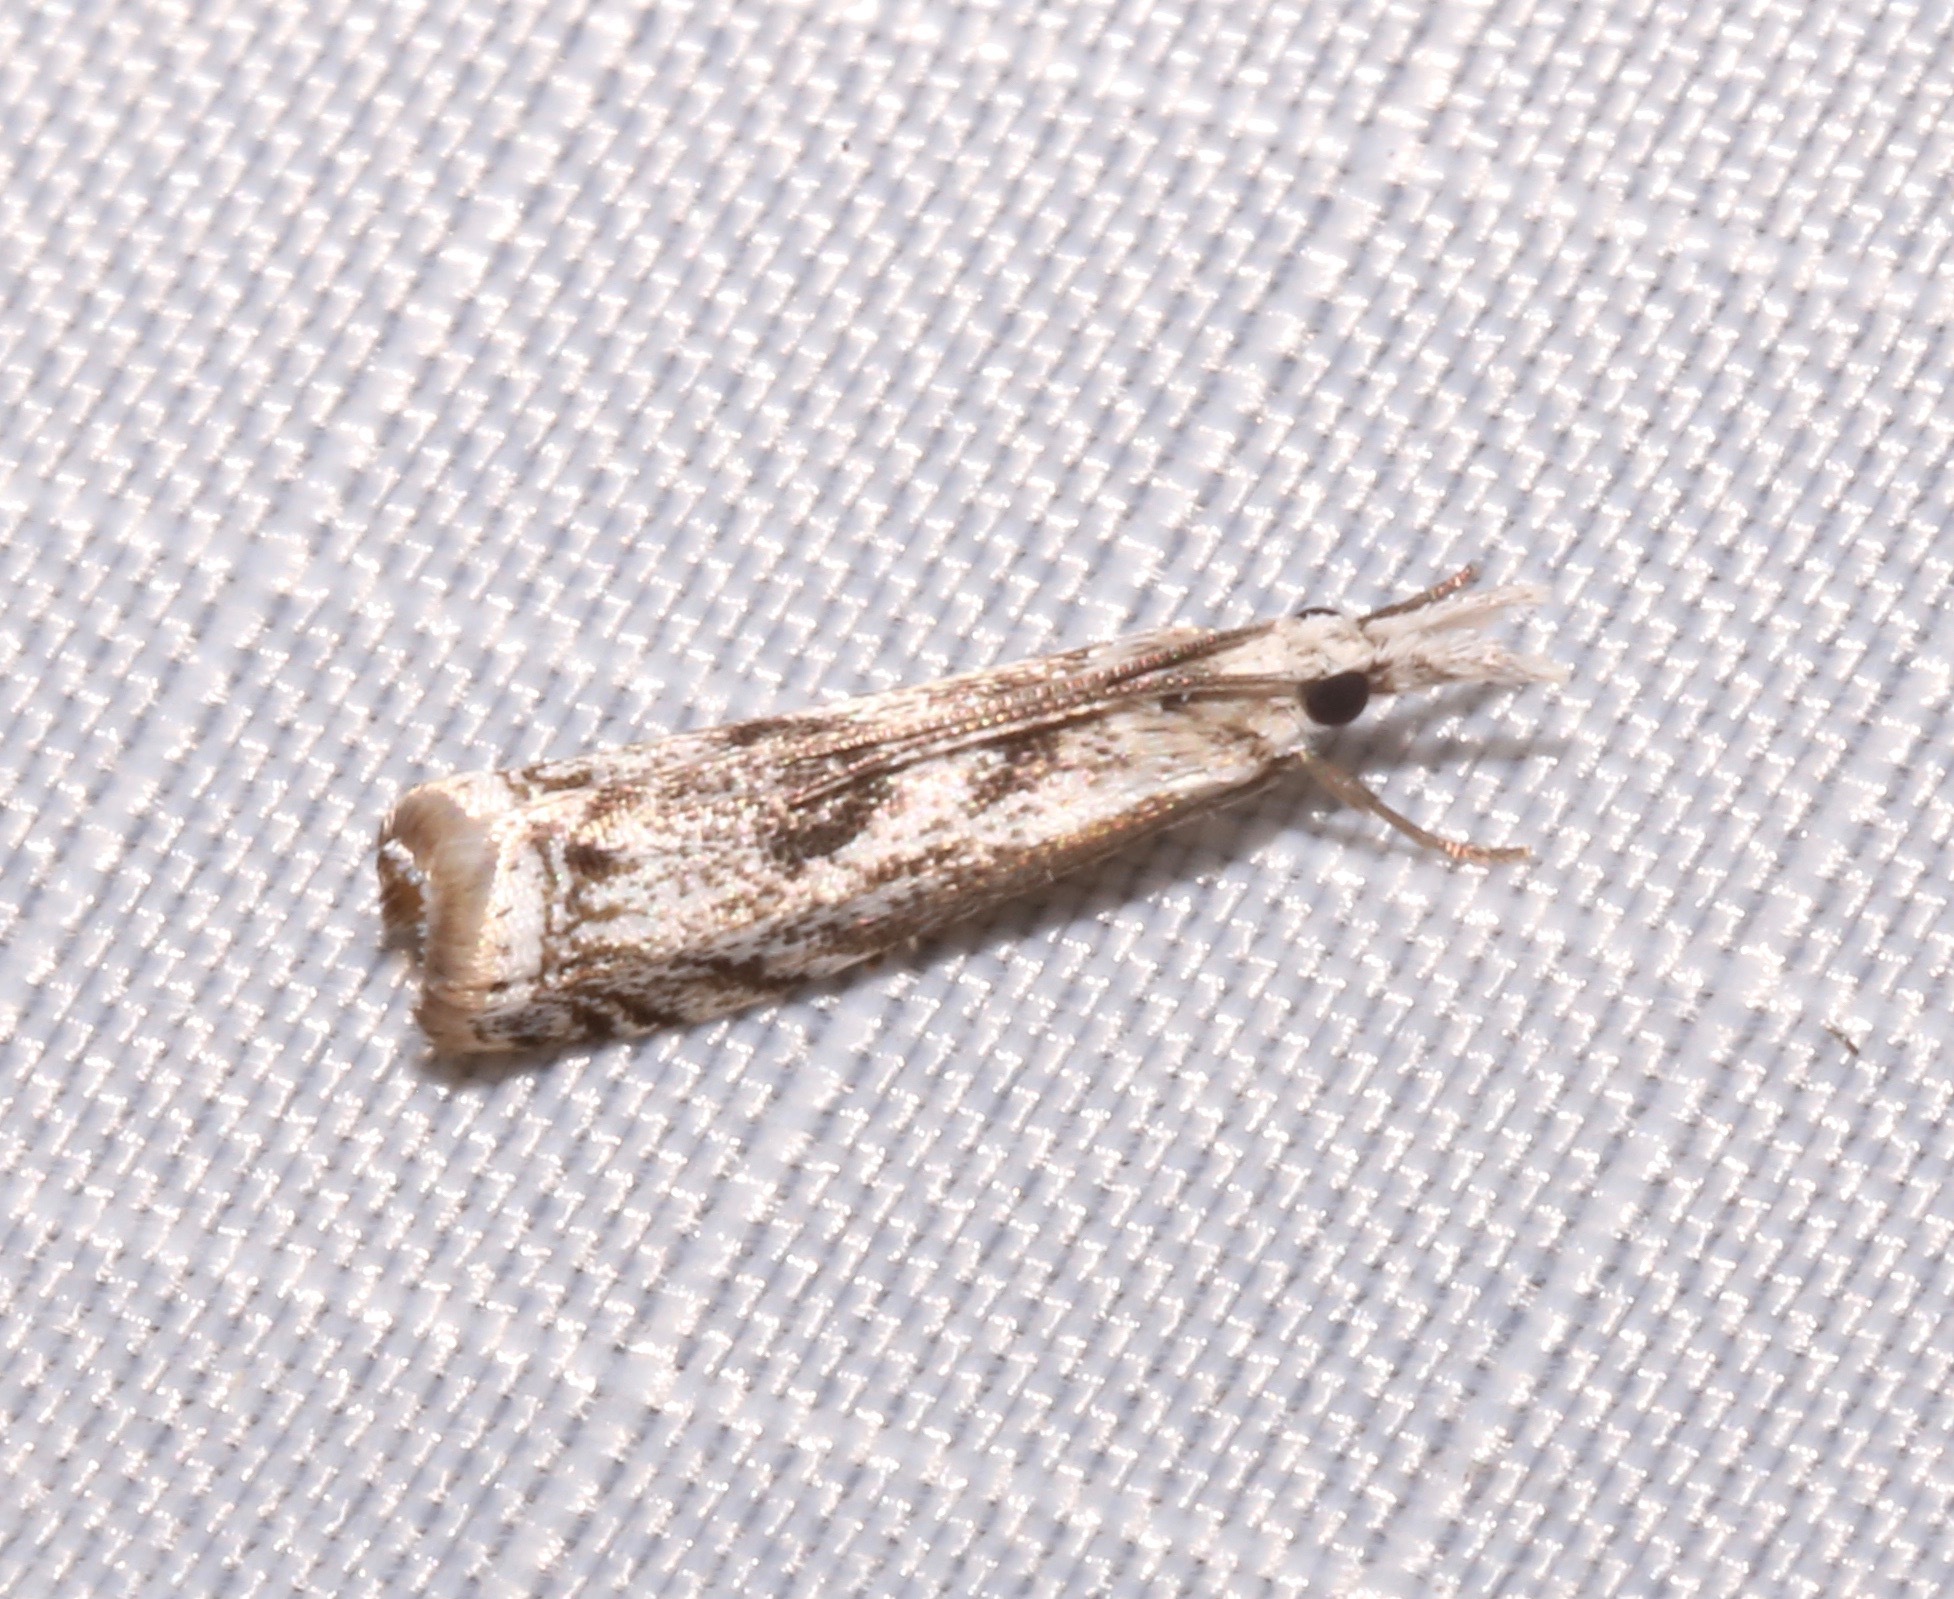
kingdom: Animalia
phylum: Arthropoda
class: Insecta
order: Lepidoptera
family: Crambidae
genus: Microcrambus
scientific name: Microcrambus kimballi
